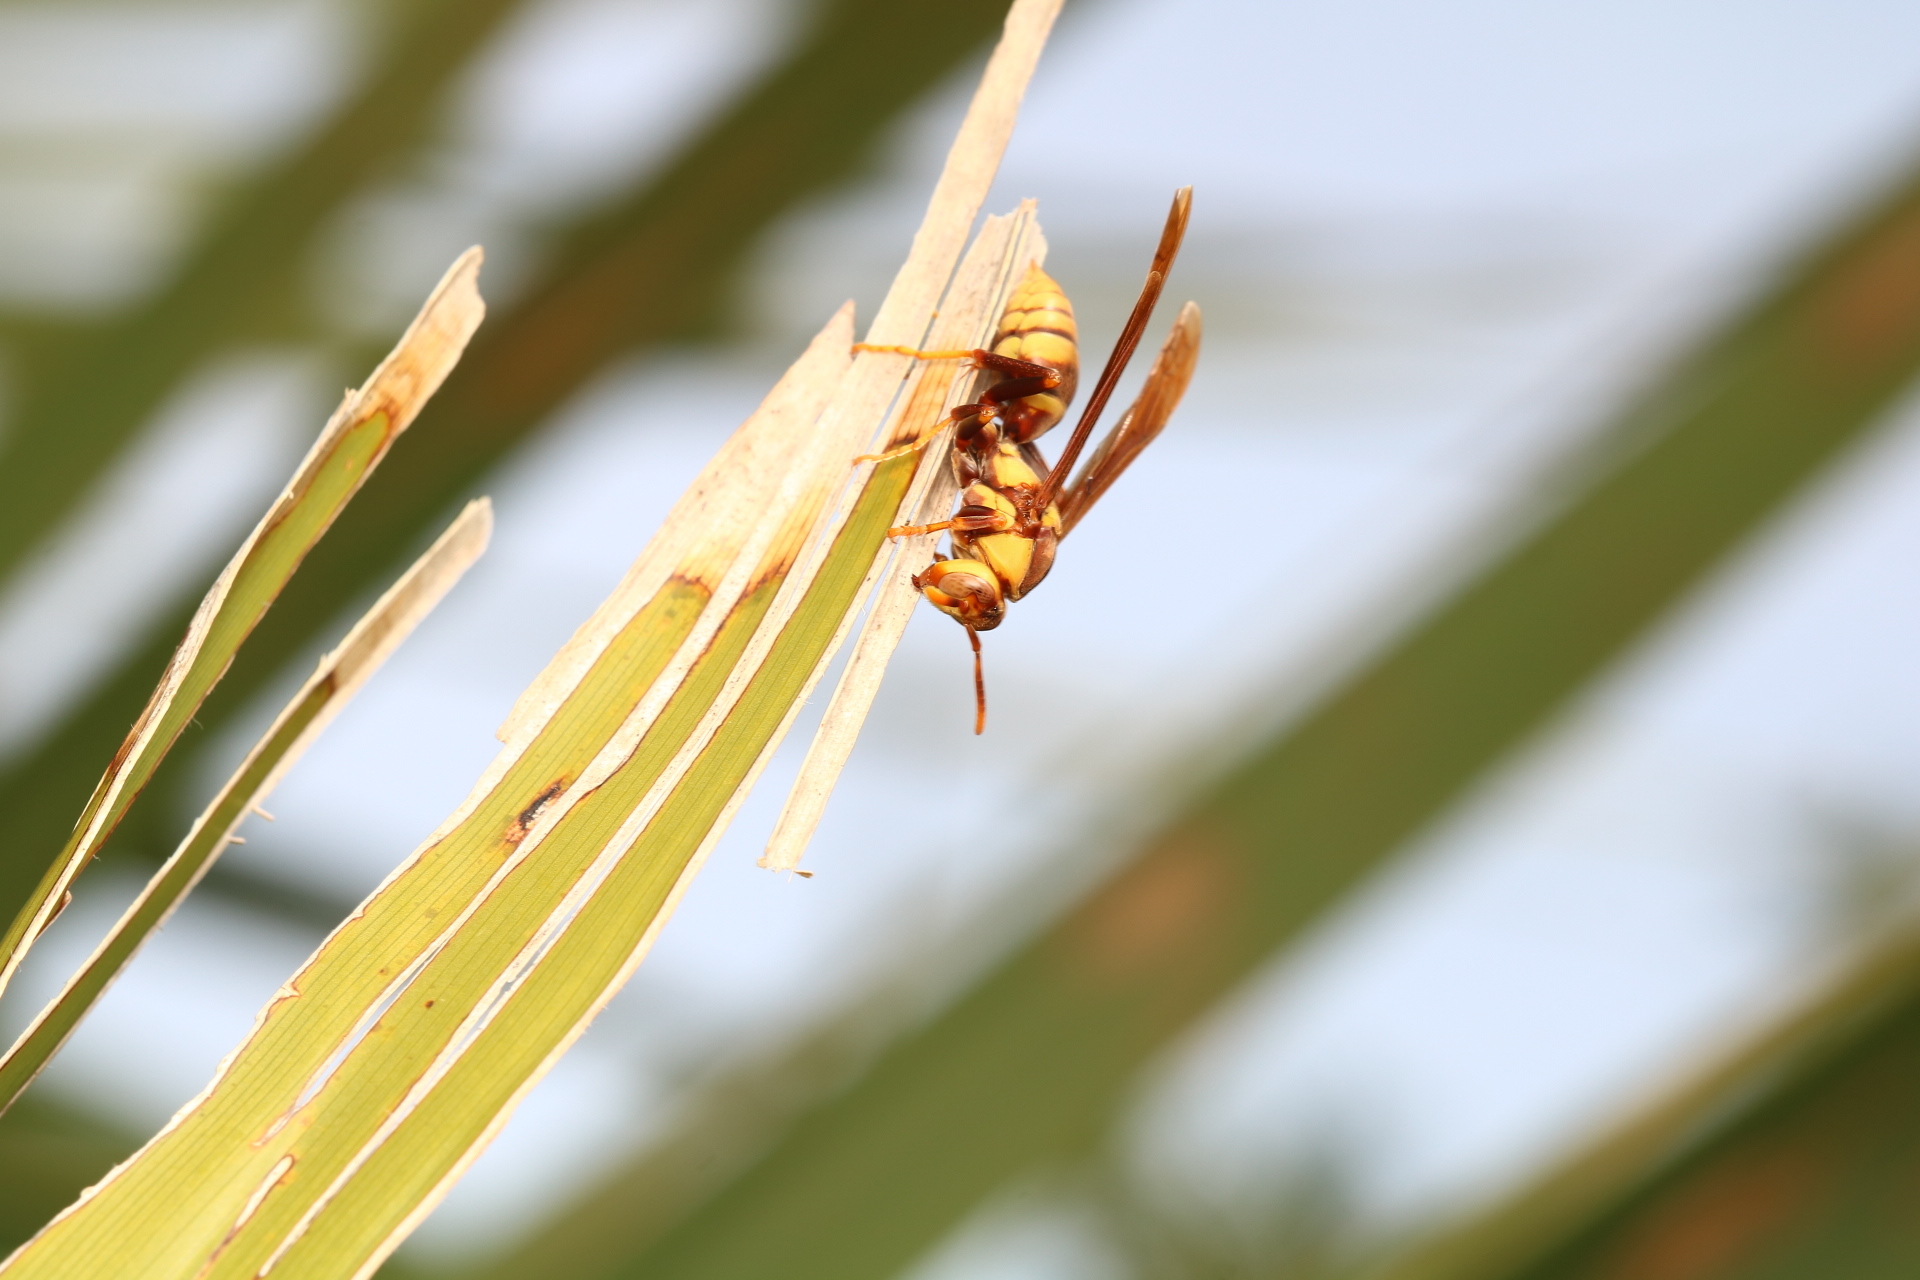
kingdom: Animalia
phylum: Arthropoda
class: Insecta
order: Hymenoptera
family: Eumenidae
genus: Polistes
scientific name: Polistes major
